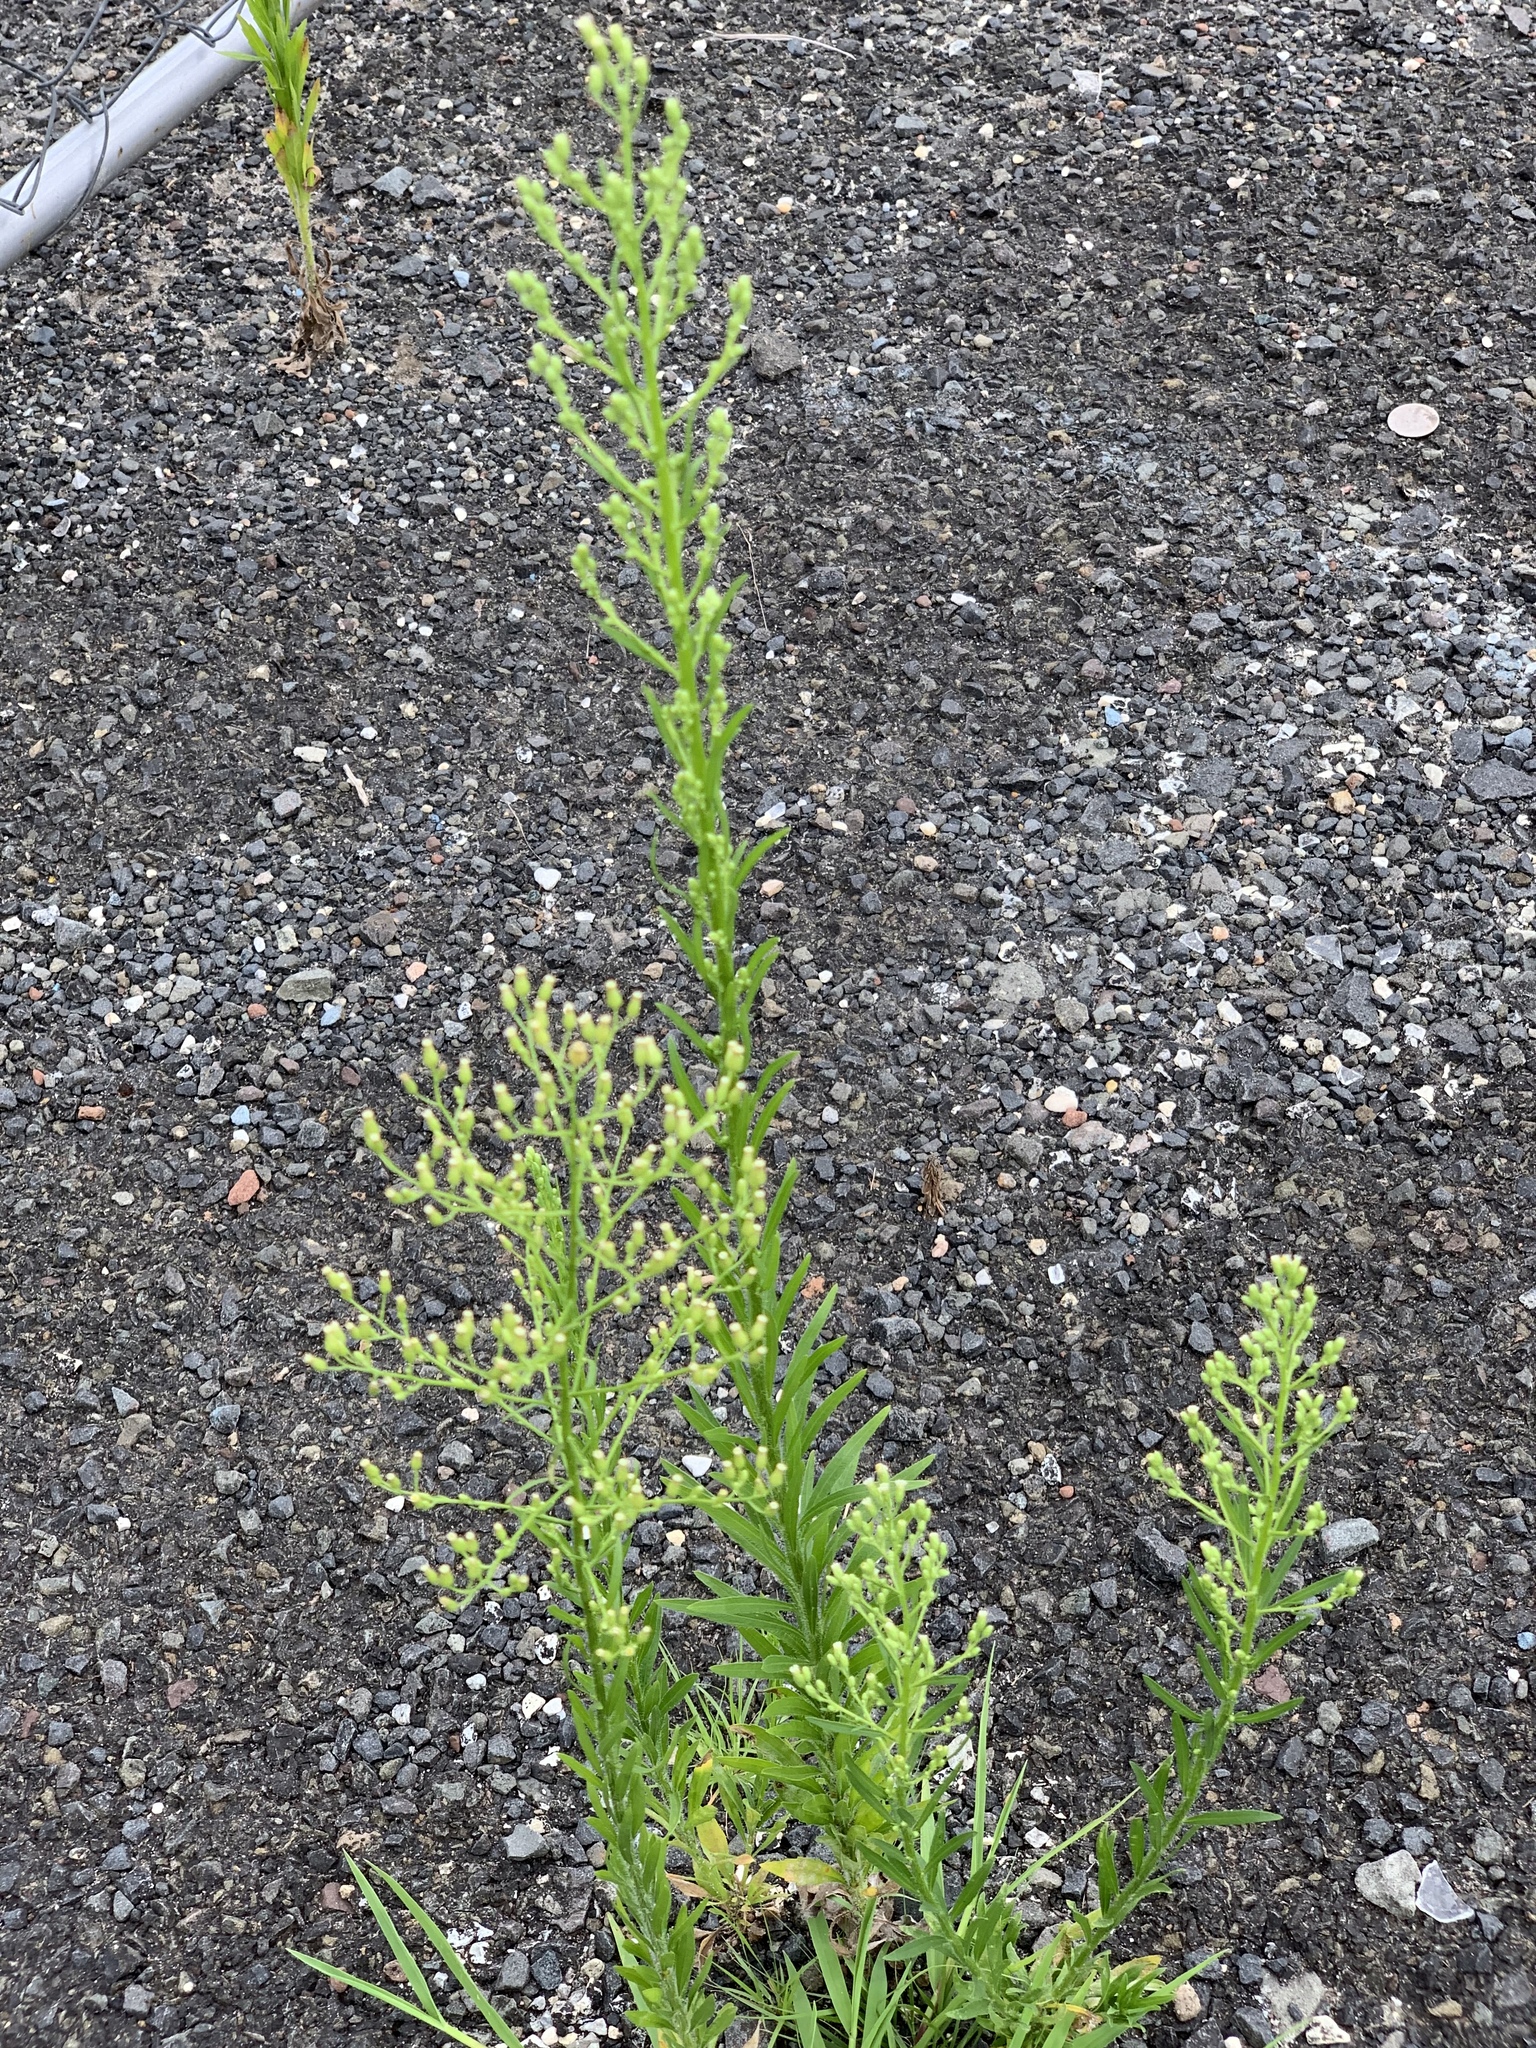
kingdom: Plantae
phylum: Tracheophyta
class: Magnoliopsida
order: Asterales
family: Asteraceae
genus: Erigeron
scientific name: Erigeron canadensis
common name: Canadian fleabane
